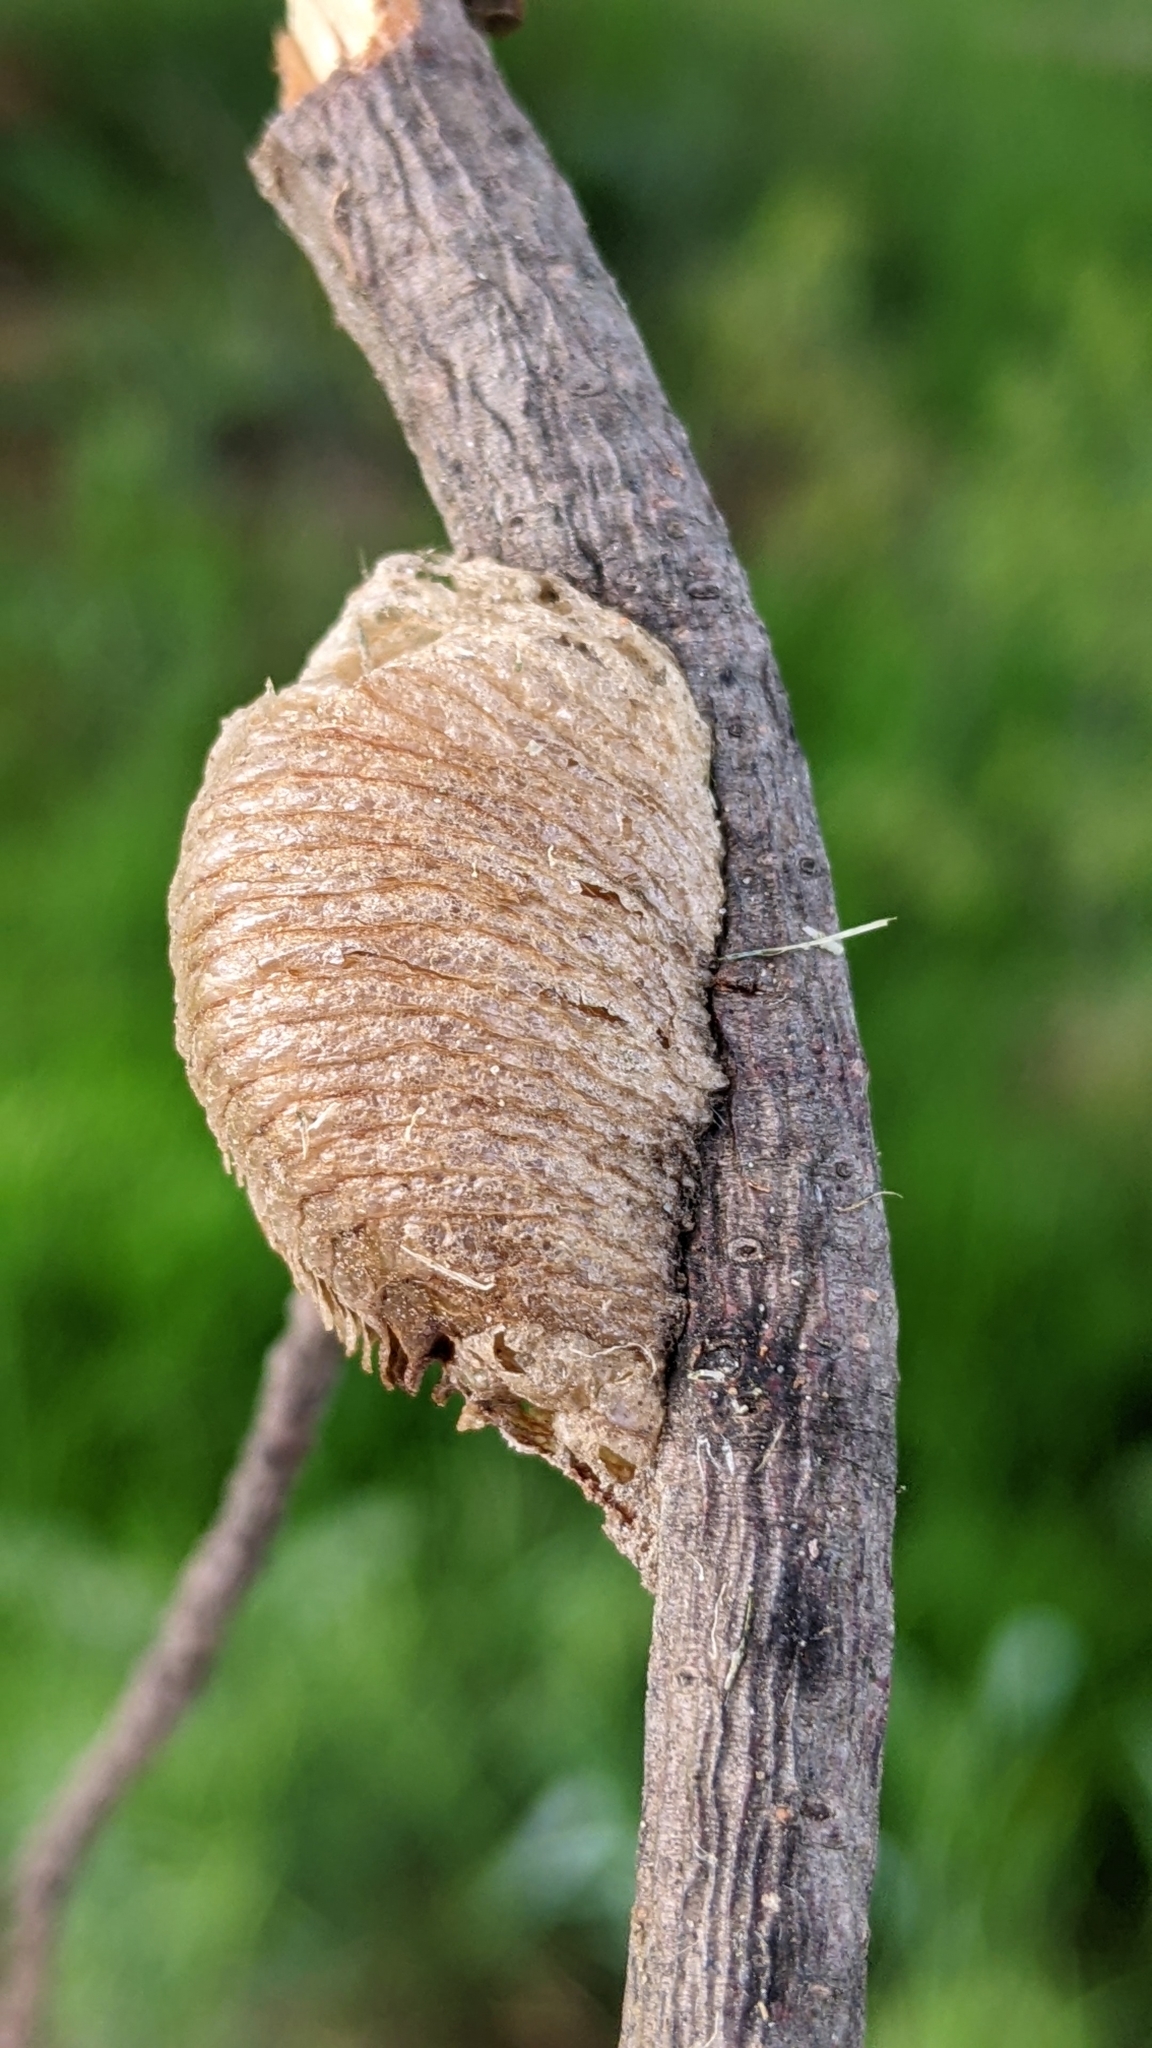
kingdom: Animalia
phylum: Arthropoda
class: Insecta
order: Mantodea
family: Mantidae
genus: Mantis
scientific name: Mantis religiosa
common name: Praying mantis
